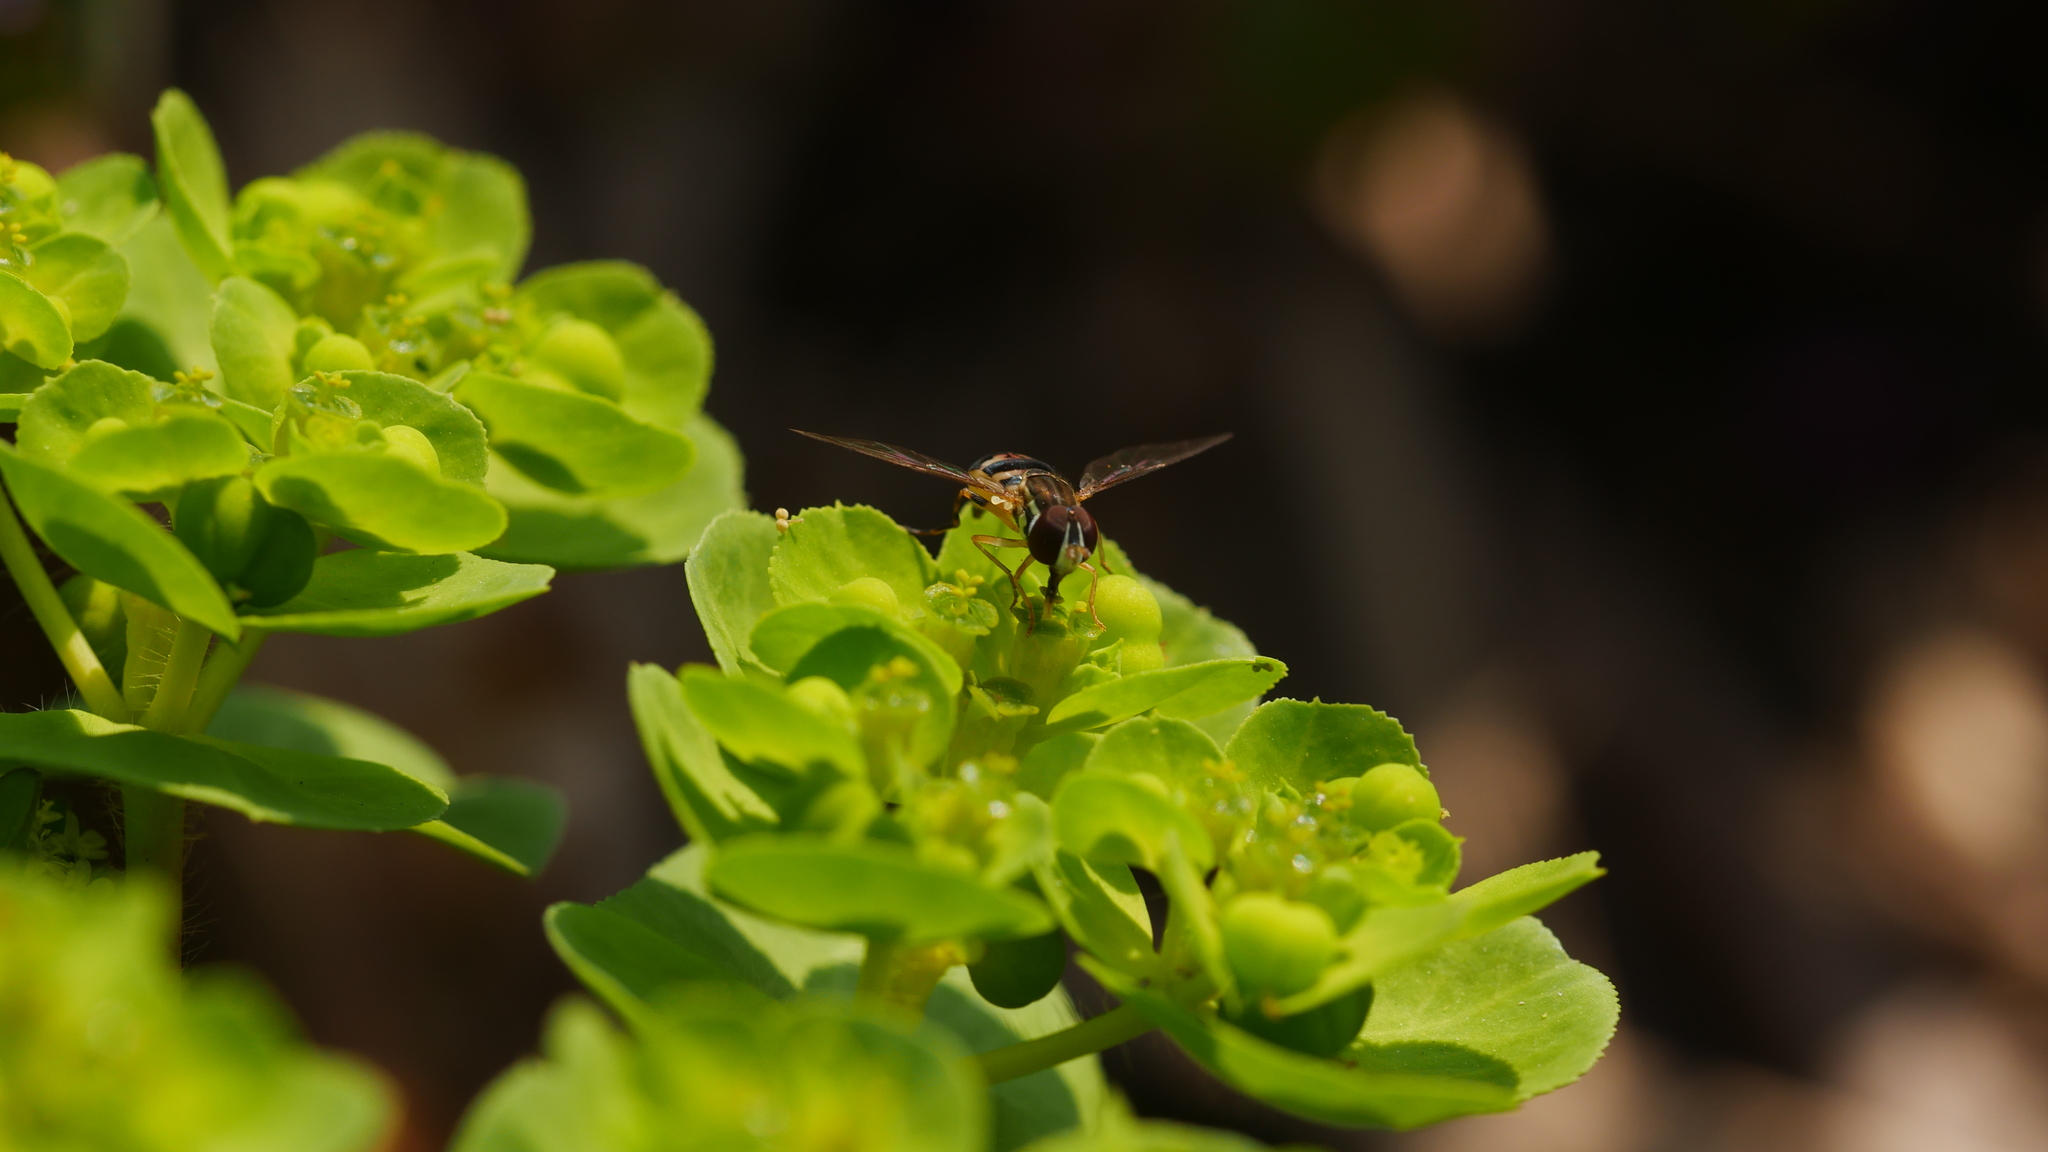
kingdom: Animalia
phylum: Arthropoda
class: Insecta
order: Diptera
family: Syrphidae
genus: Toxomerus
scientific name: Toxomerus geminatus
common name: Eastern calligrapher
